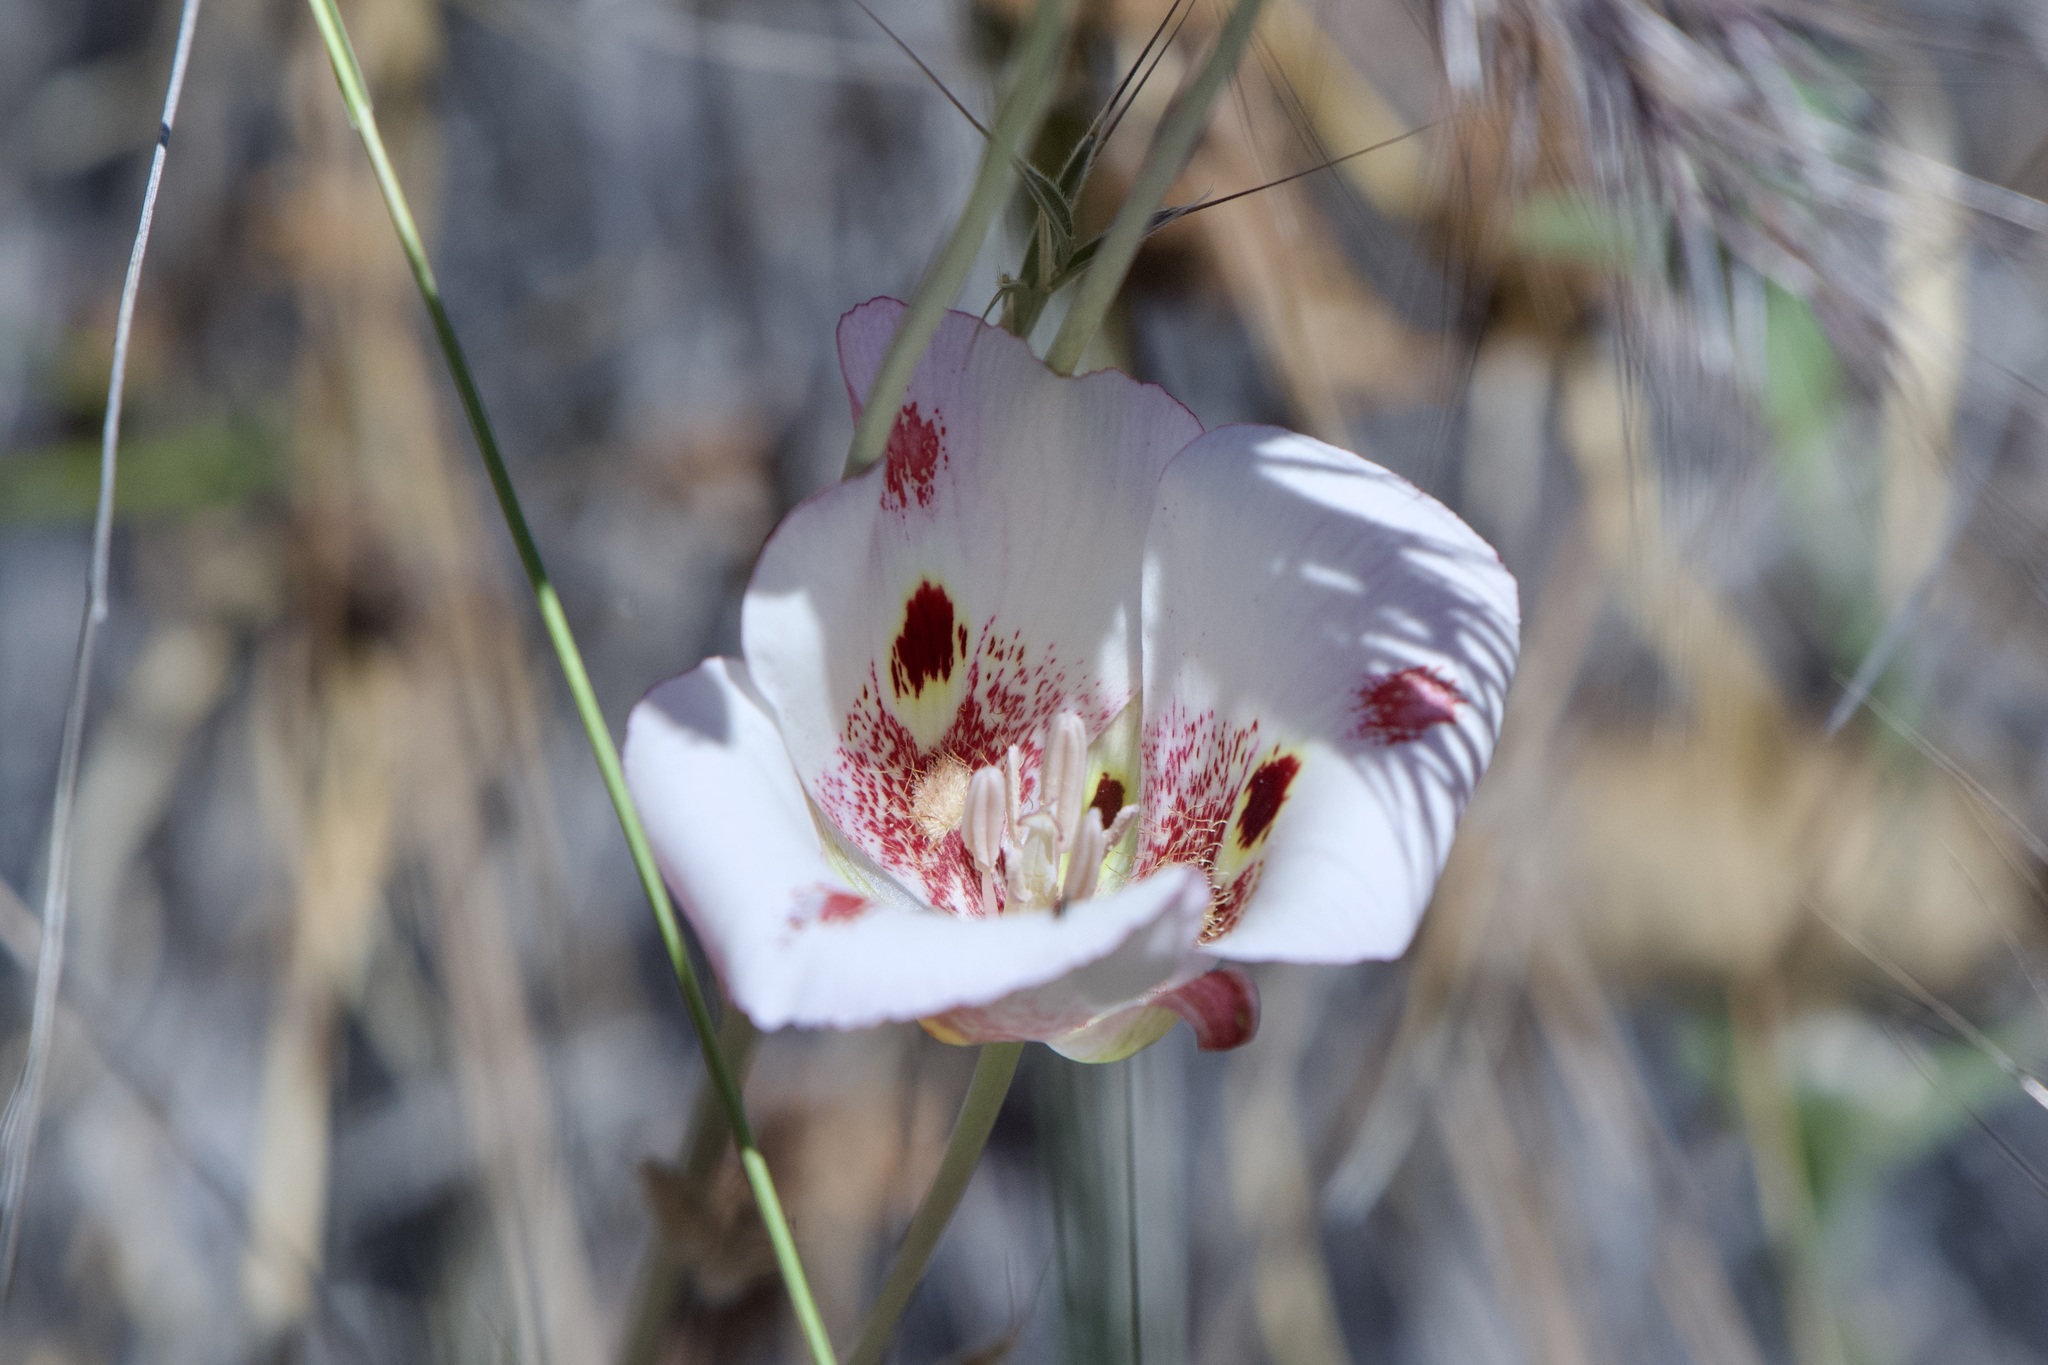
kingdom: Plantae
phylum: Tracheophyta
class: Liliopsida
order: Liliales
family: Liliaceae
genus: Calochortus
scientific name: Calochortus venustus
